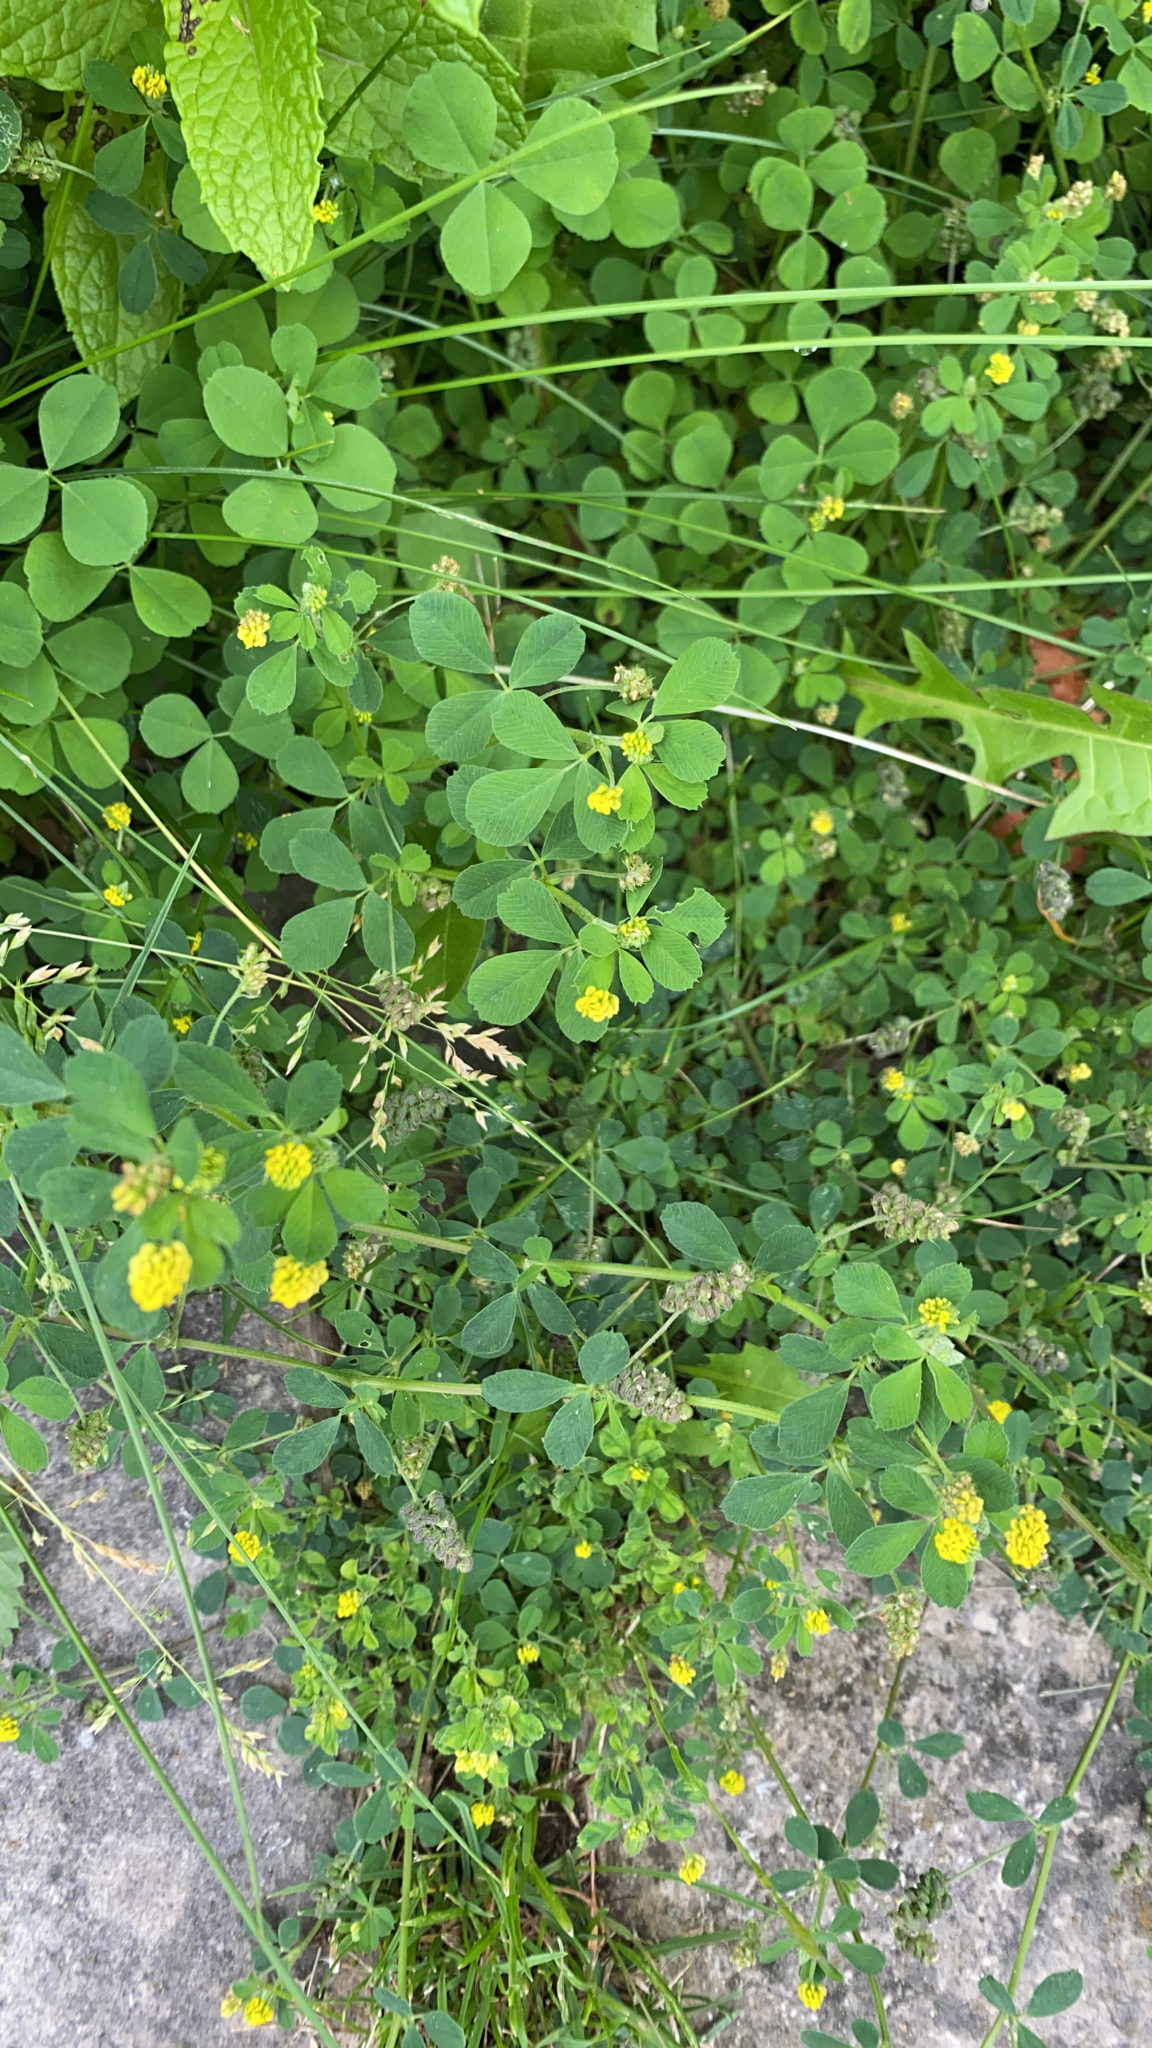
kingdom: Plantae
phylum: Tracheophyta
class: Magnoliopsida
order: Fabales
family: Fabaceae
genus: Medicago
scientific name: Medicago lupulina
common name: Black medick
